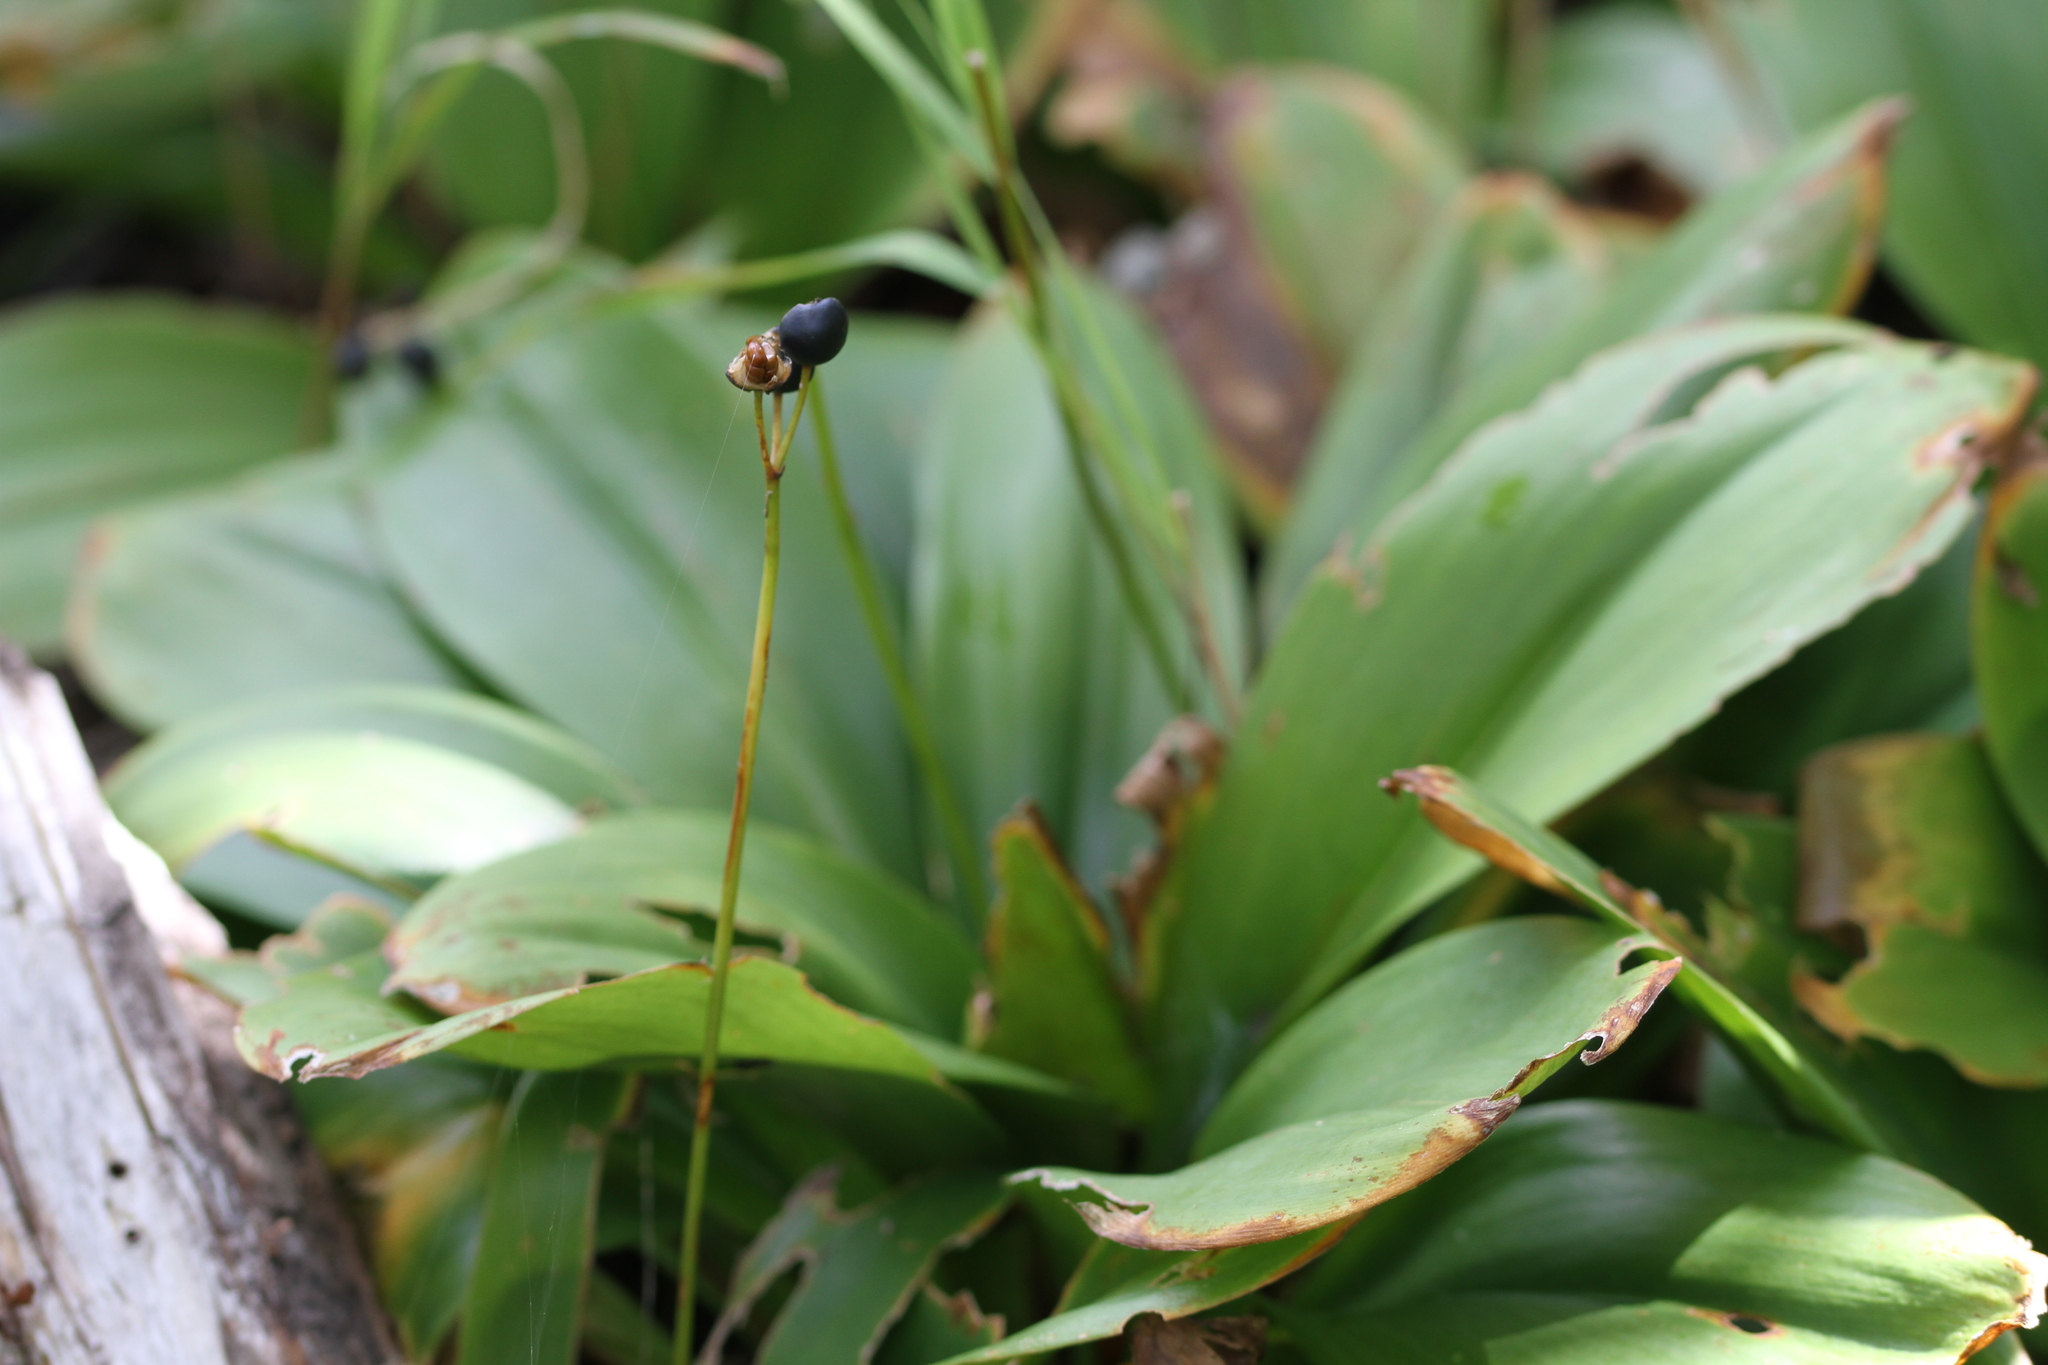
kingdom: Plantae
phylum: Tracheophyta
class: Liliopsida
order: Liliales
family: Liliaceae
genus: Clintonia
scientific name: Clintonia borealis
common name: Yellow clintonia
